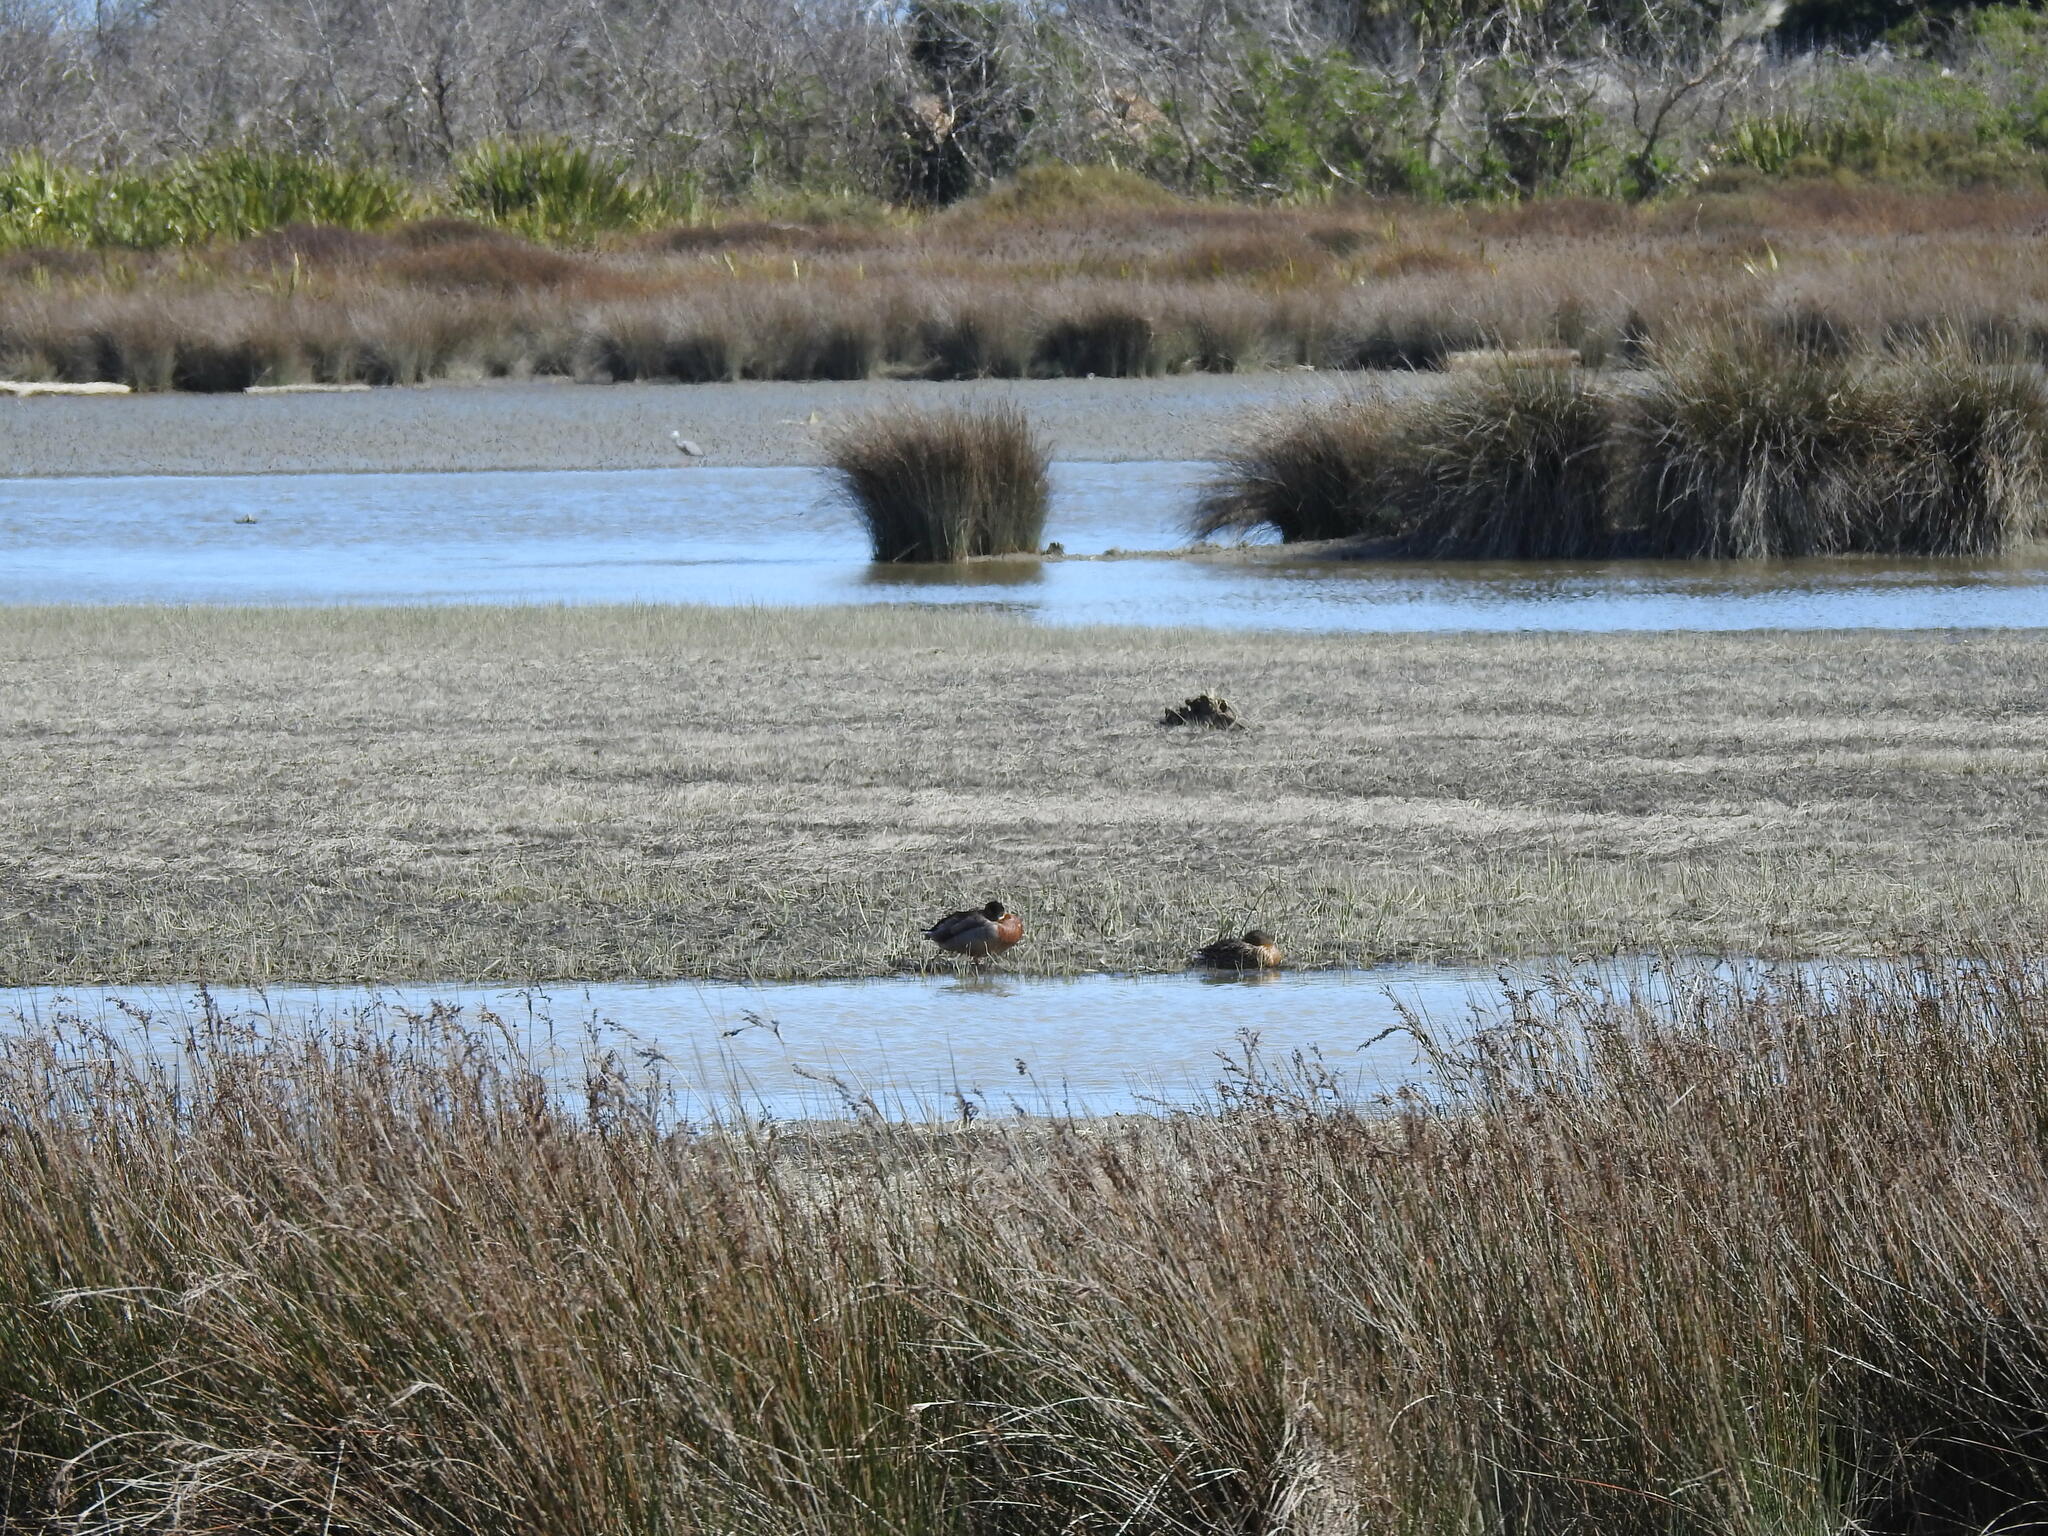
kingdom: Animalia
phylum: Chordata
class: Aves
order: Pelecaniformes
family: Ardeidae
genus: Egretta
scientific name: Egretta novaehollandiae
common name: White-faced heron
